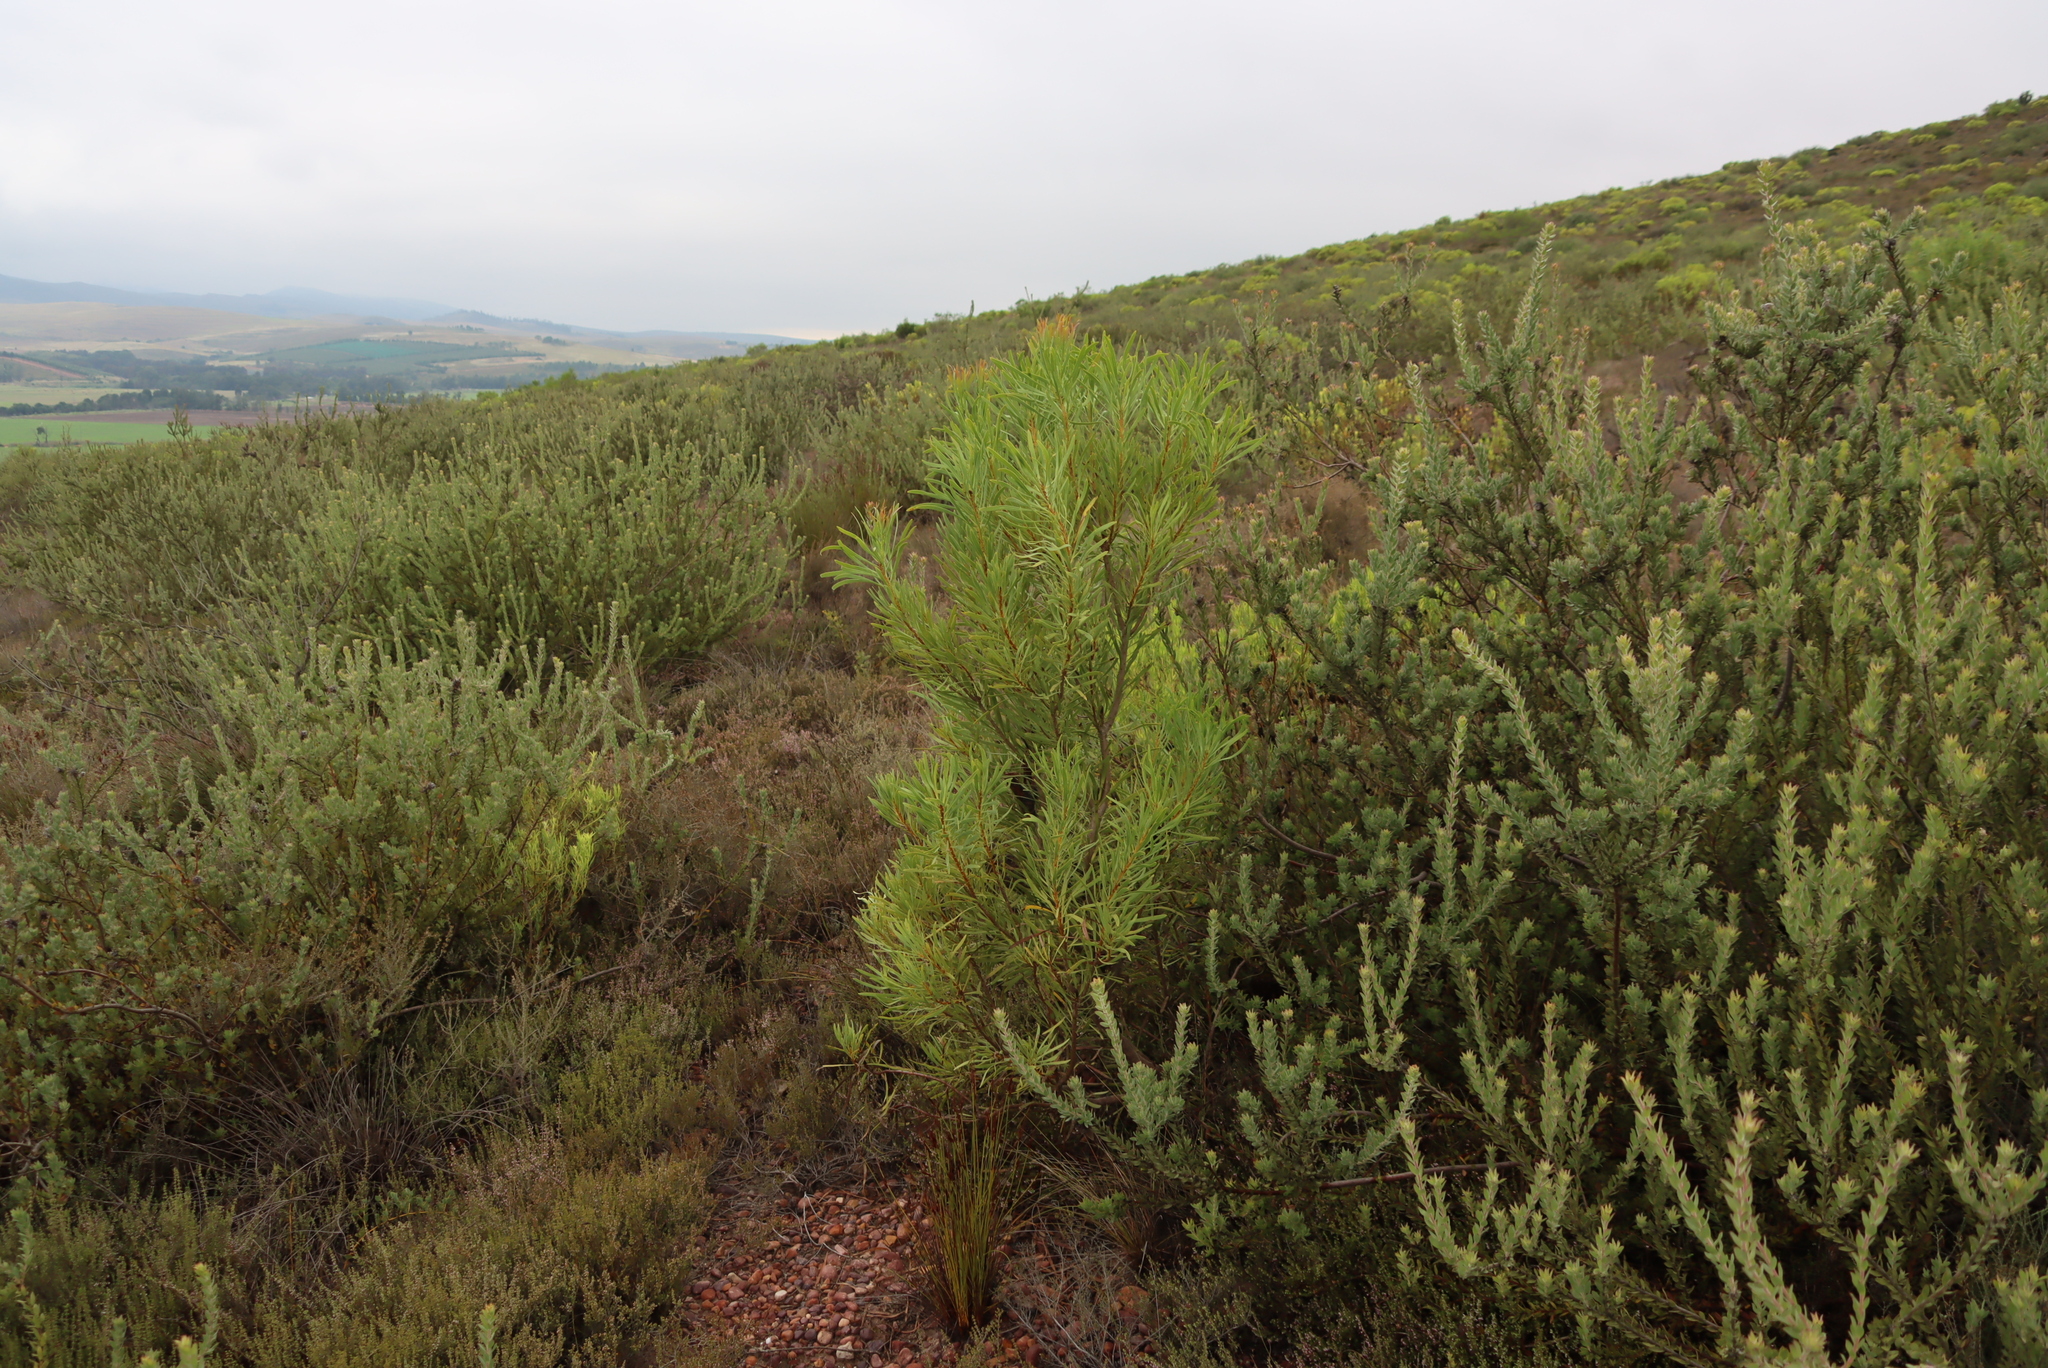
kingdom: Plantae
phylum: Tracheophyta
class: Magnoliopsida
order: Proteales
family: Proteaceae
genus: Protea
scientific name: Protea repens
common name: Sugarbush
